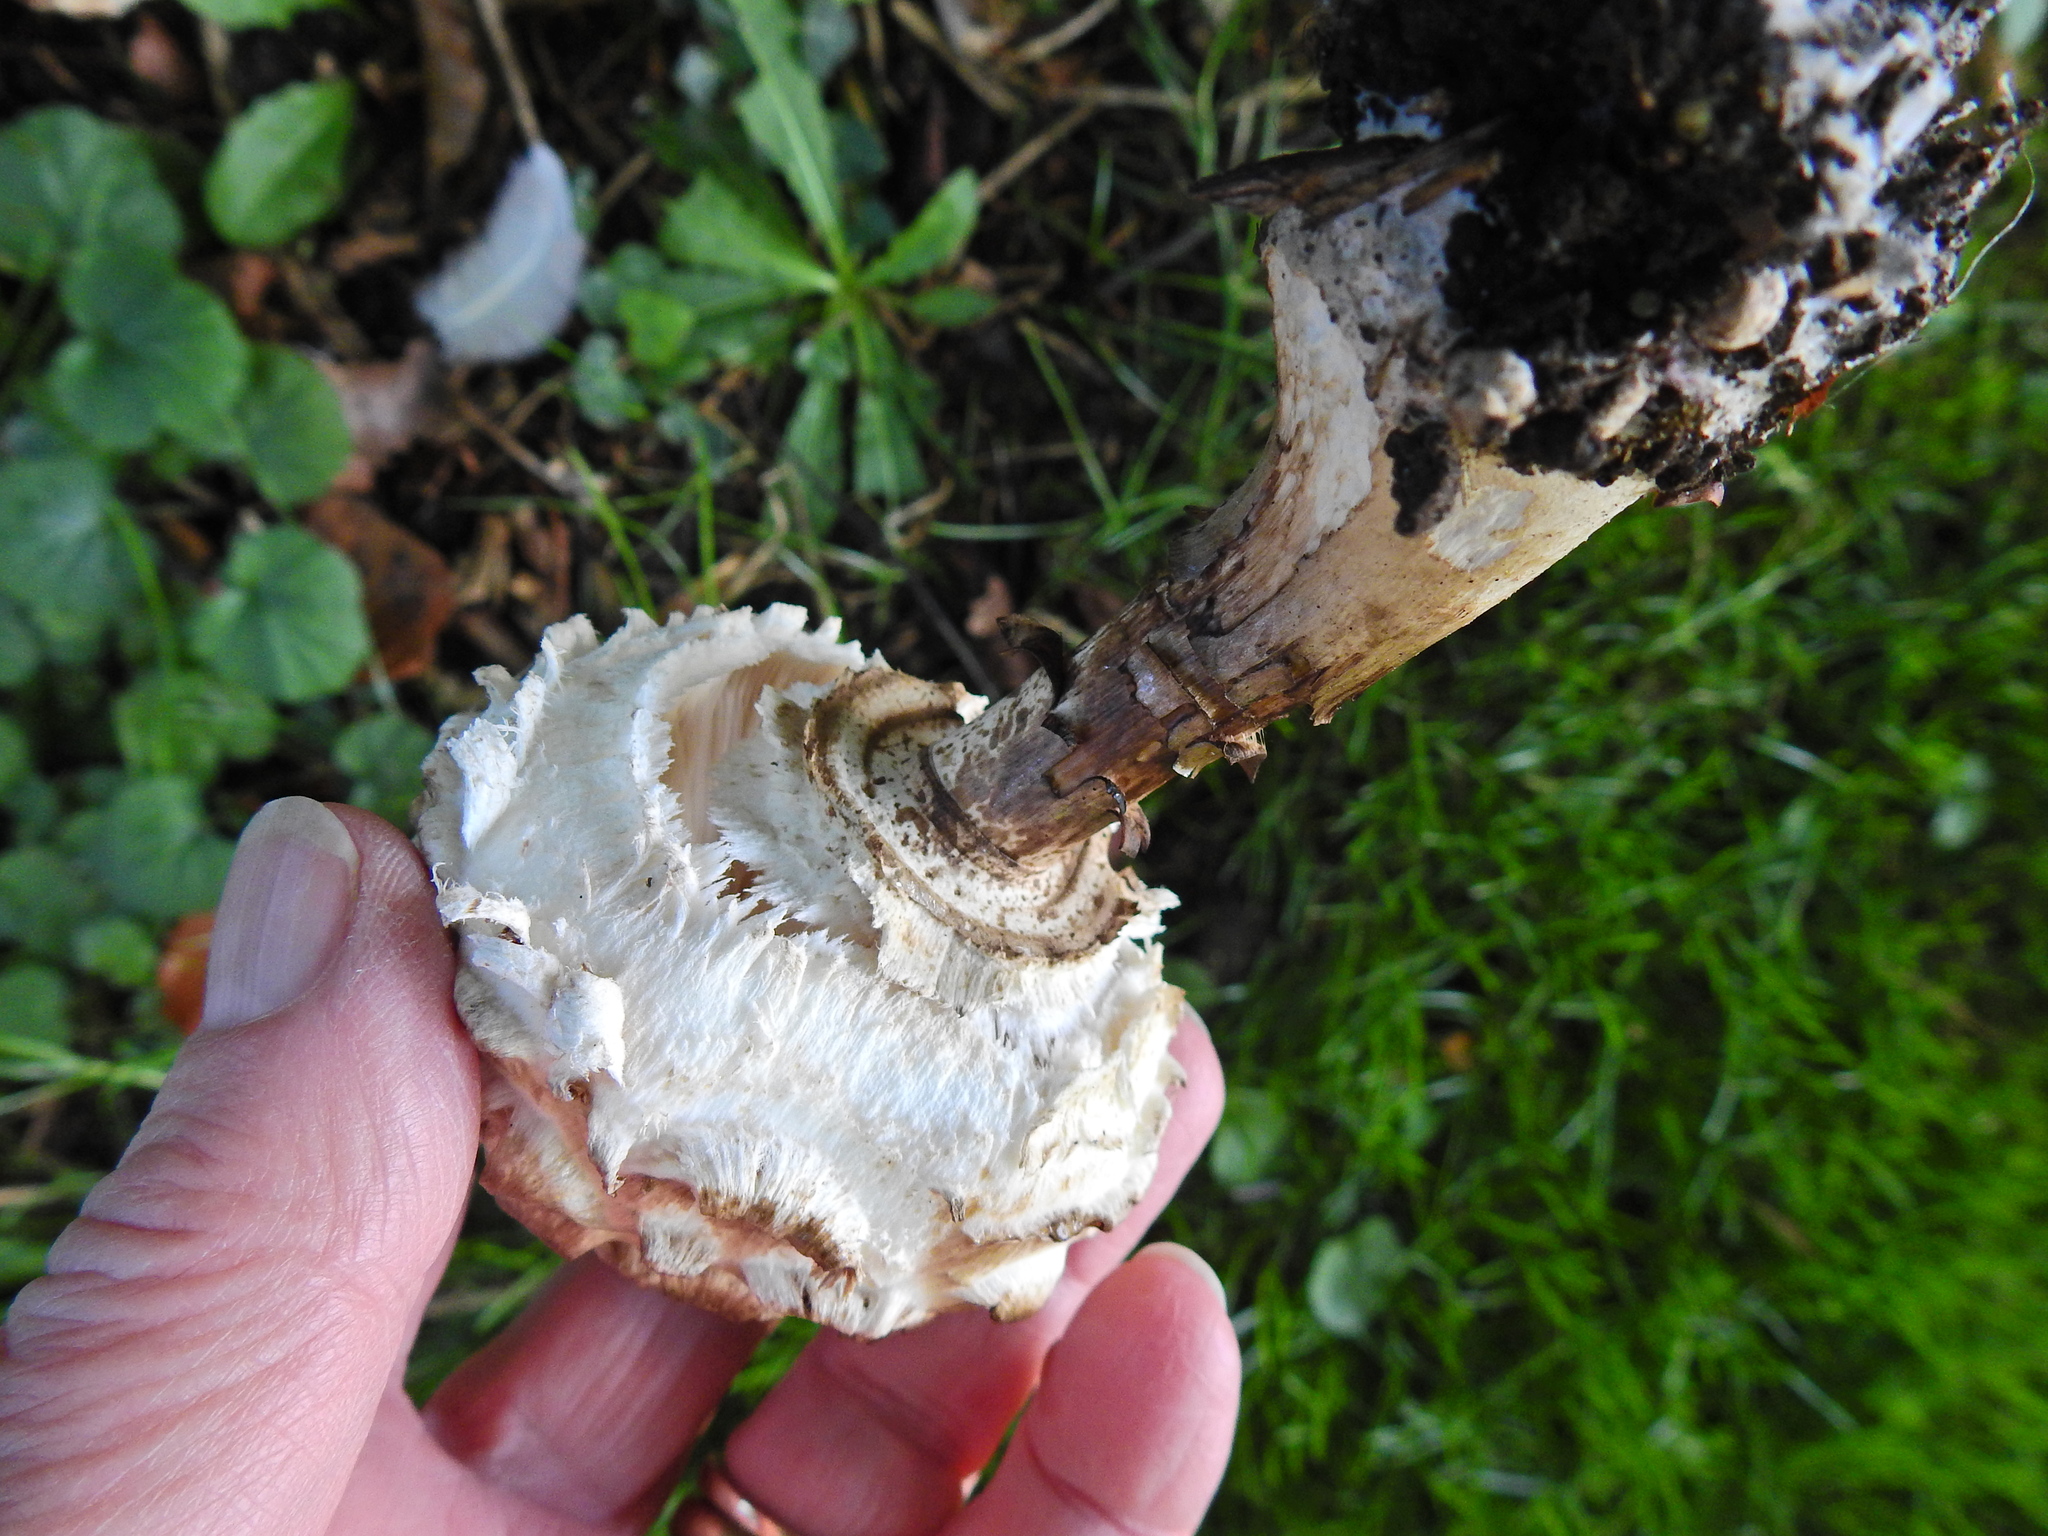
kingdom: Fungi
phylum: Basidiomycota
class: Agaricomycetes
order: Agaricales
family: Agaricaceae
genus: Chlorophyllum
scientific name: Chlorophyllum rhacodes
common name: Shaggy parasol
